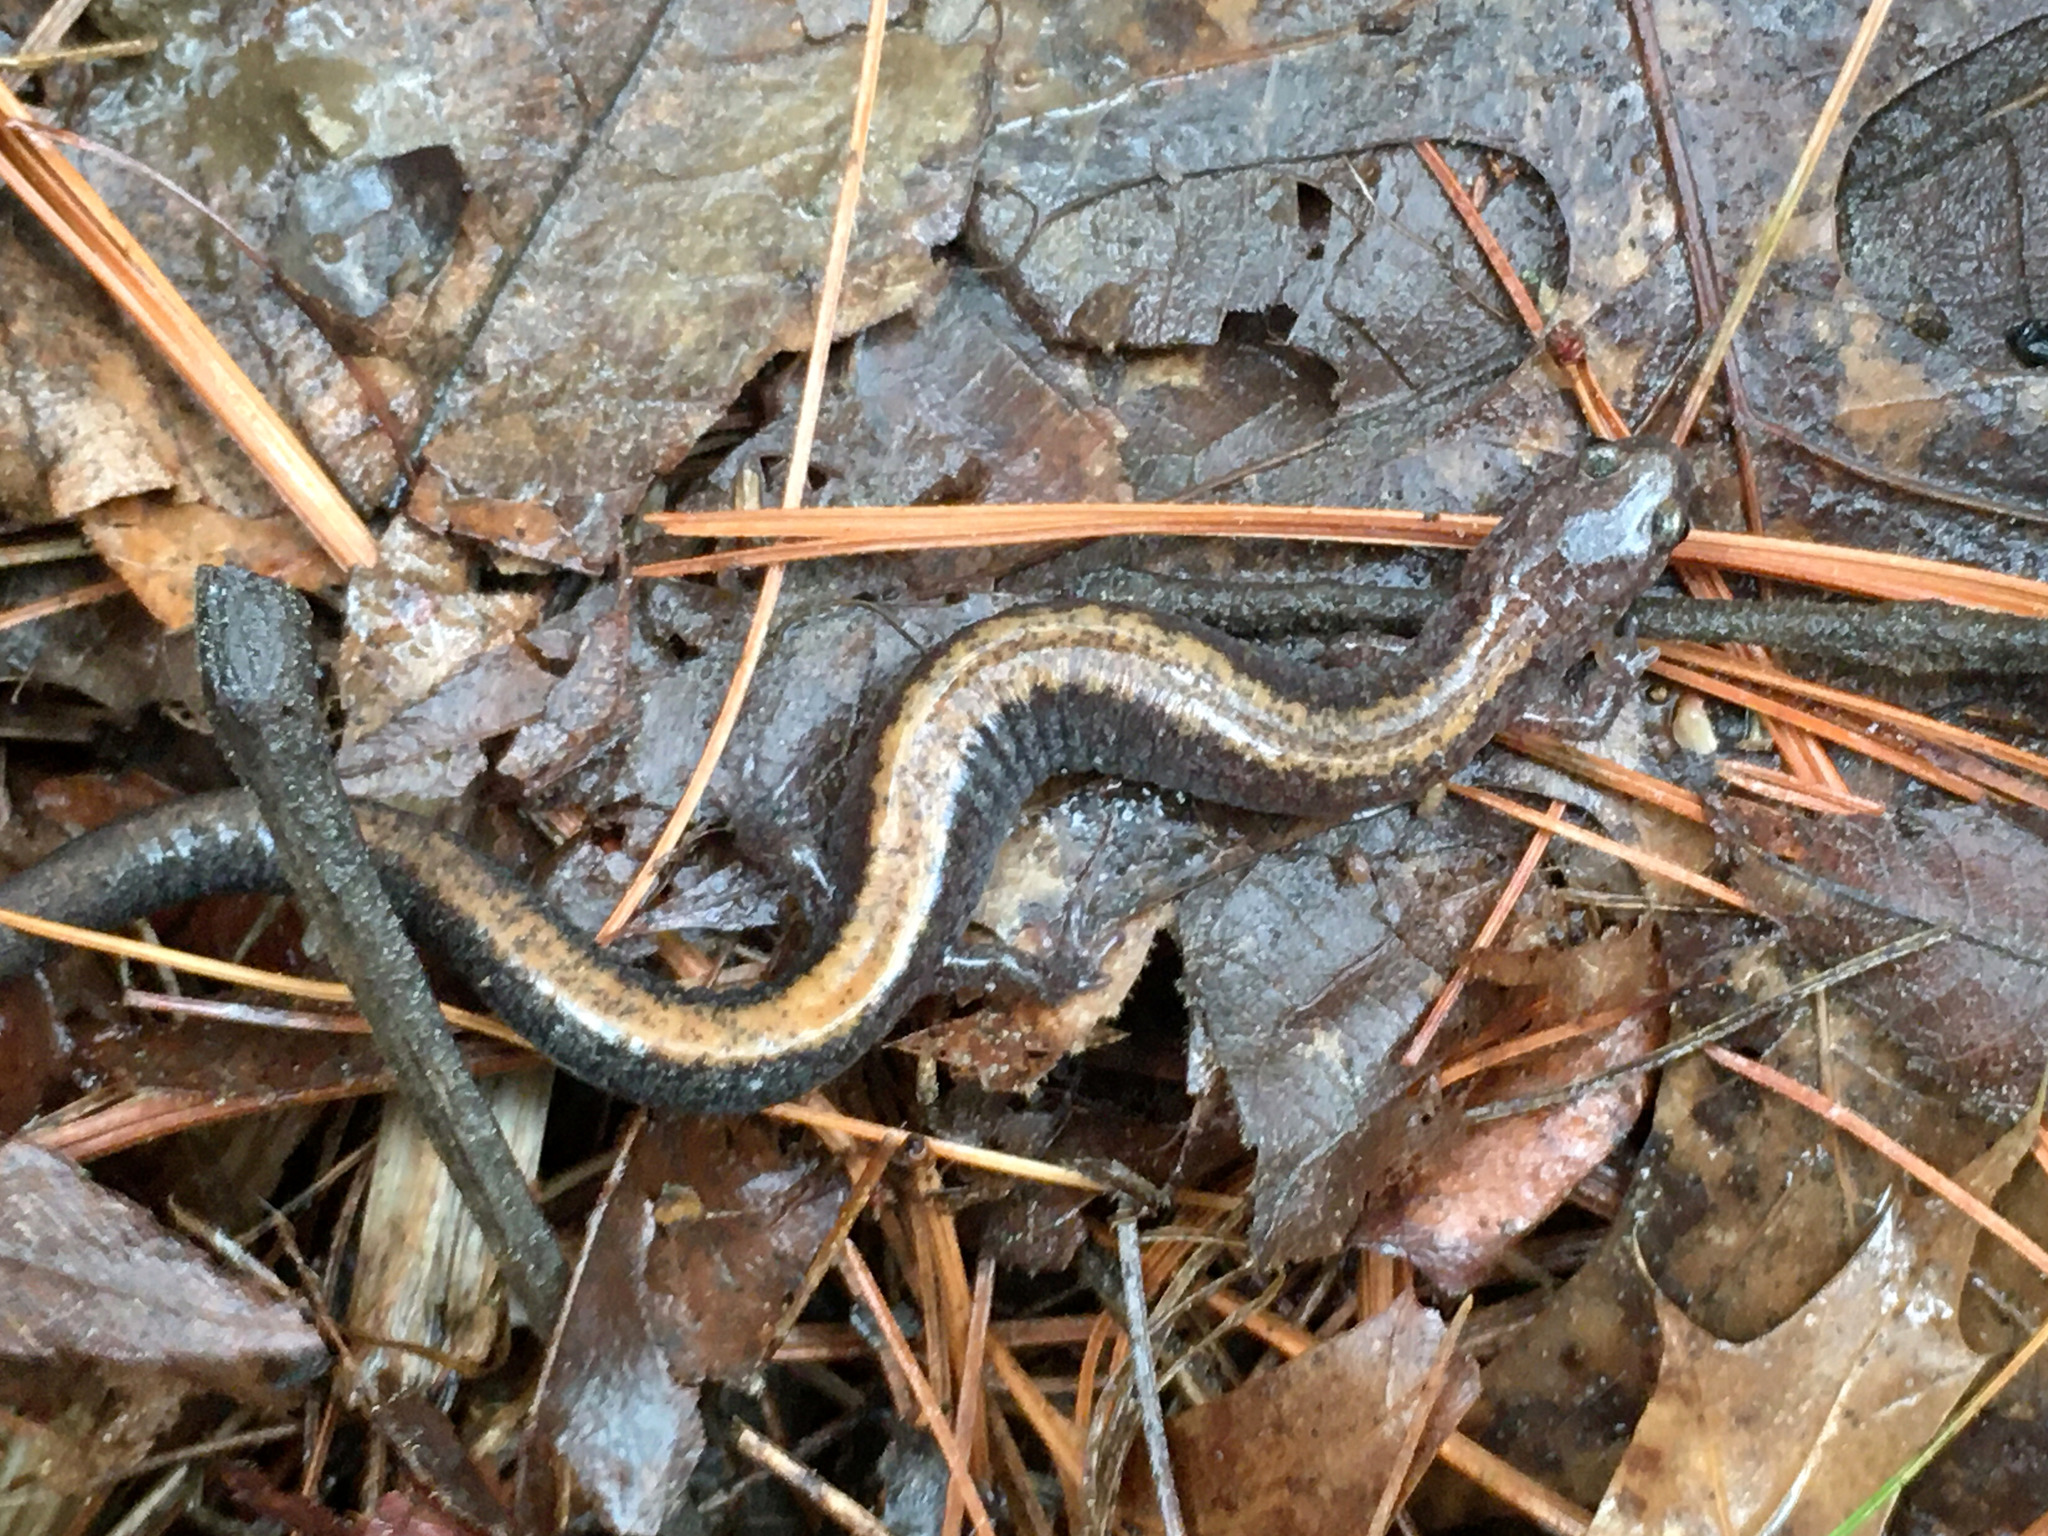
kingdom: Animalia
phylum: Chordata
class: Amphibia
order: Caudata
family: Plethodontidae
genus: Plethodon
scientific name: Plethodon cinereus
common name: Redback salamander
